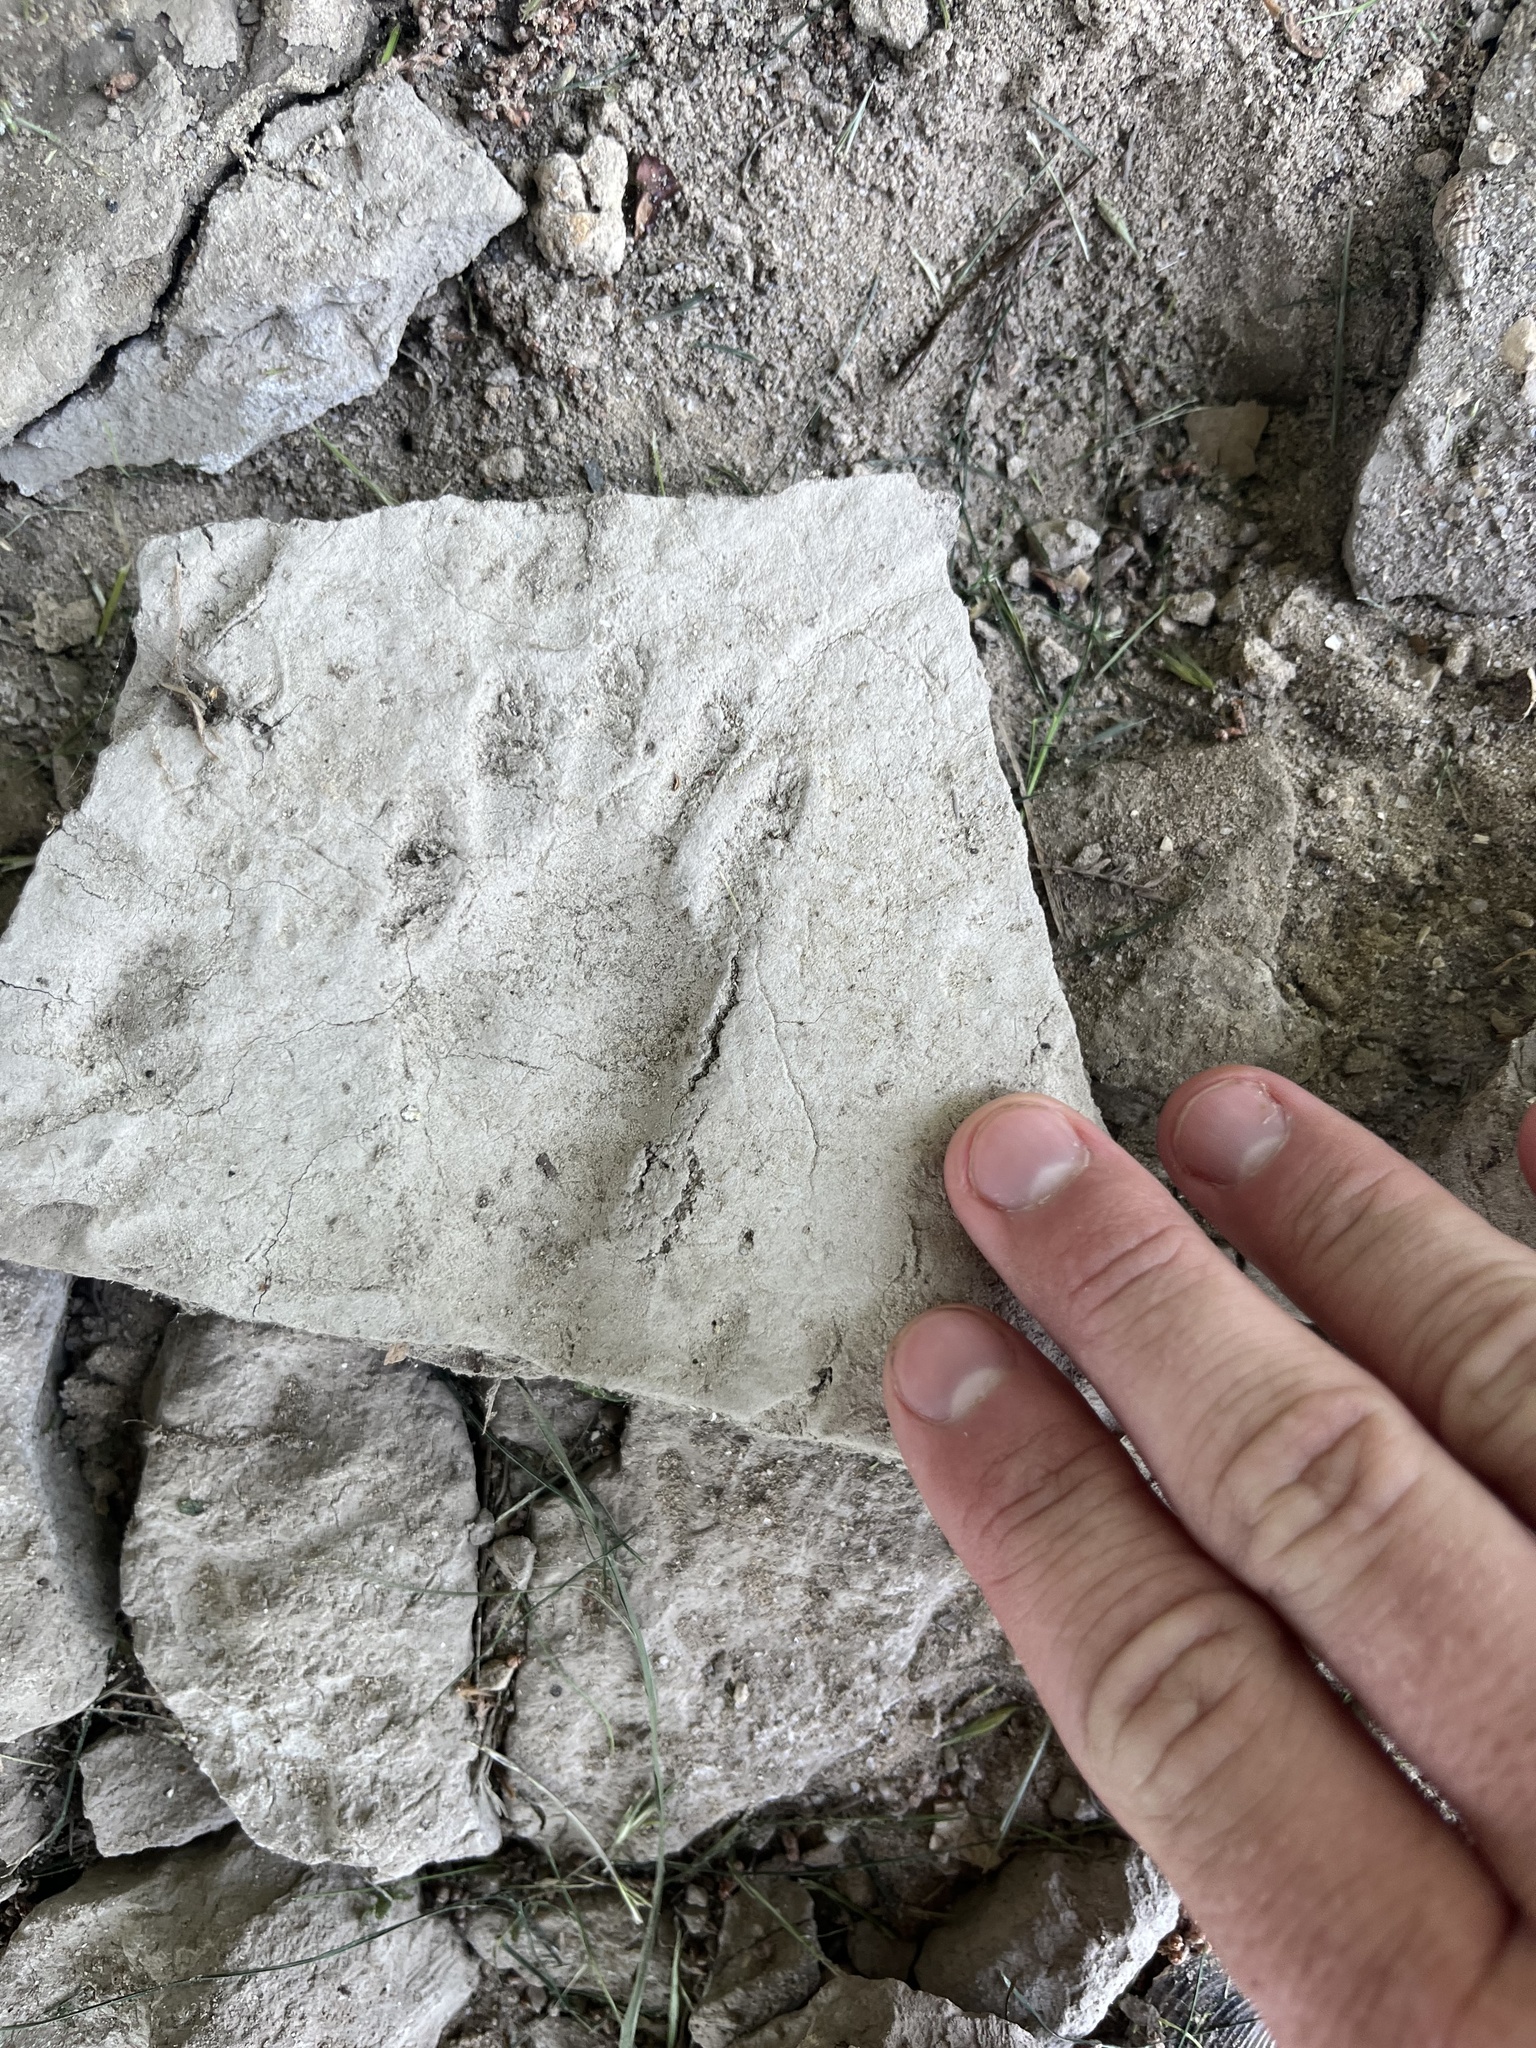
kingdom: Animalia
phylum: Chordata
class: Mammalia
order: Carnivora
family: Procyonidae
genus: Procyon
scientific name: Procyon lotor
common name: Raccoon
